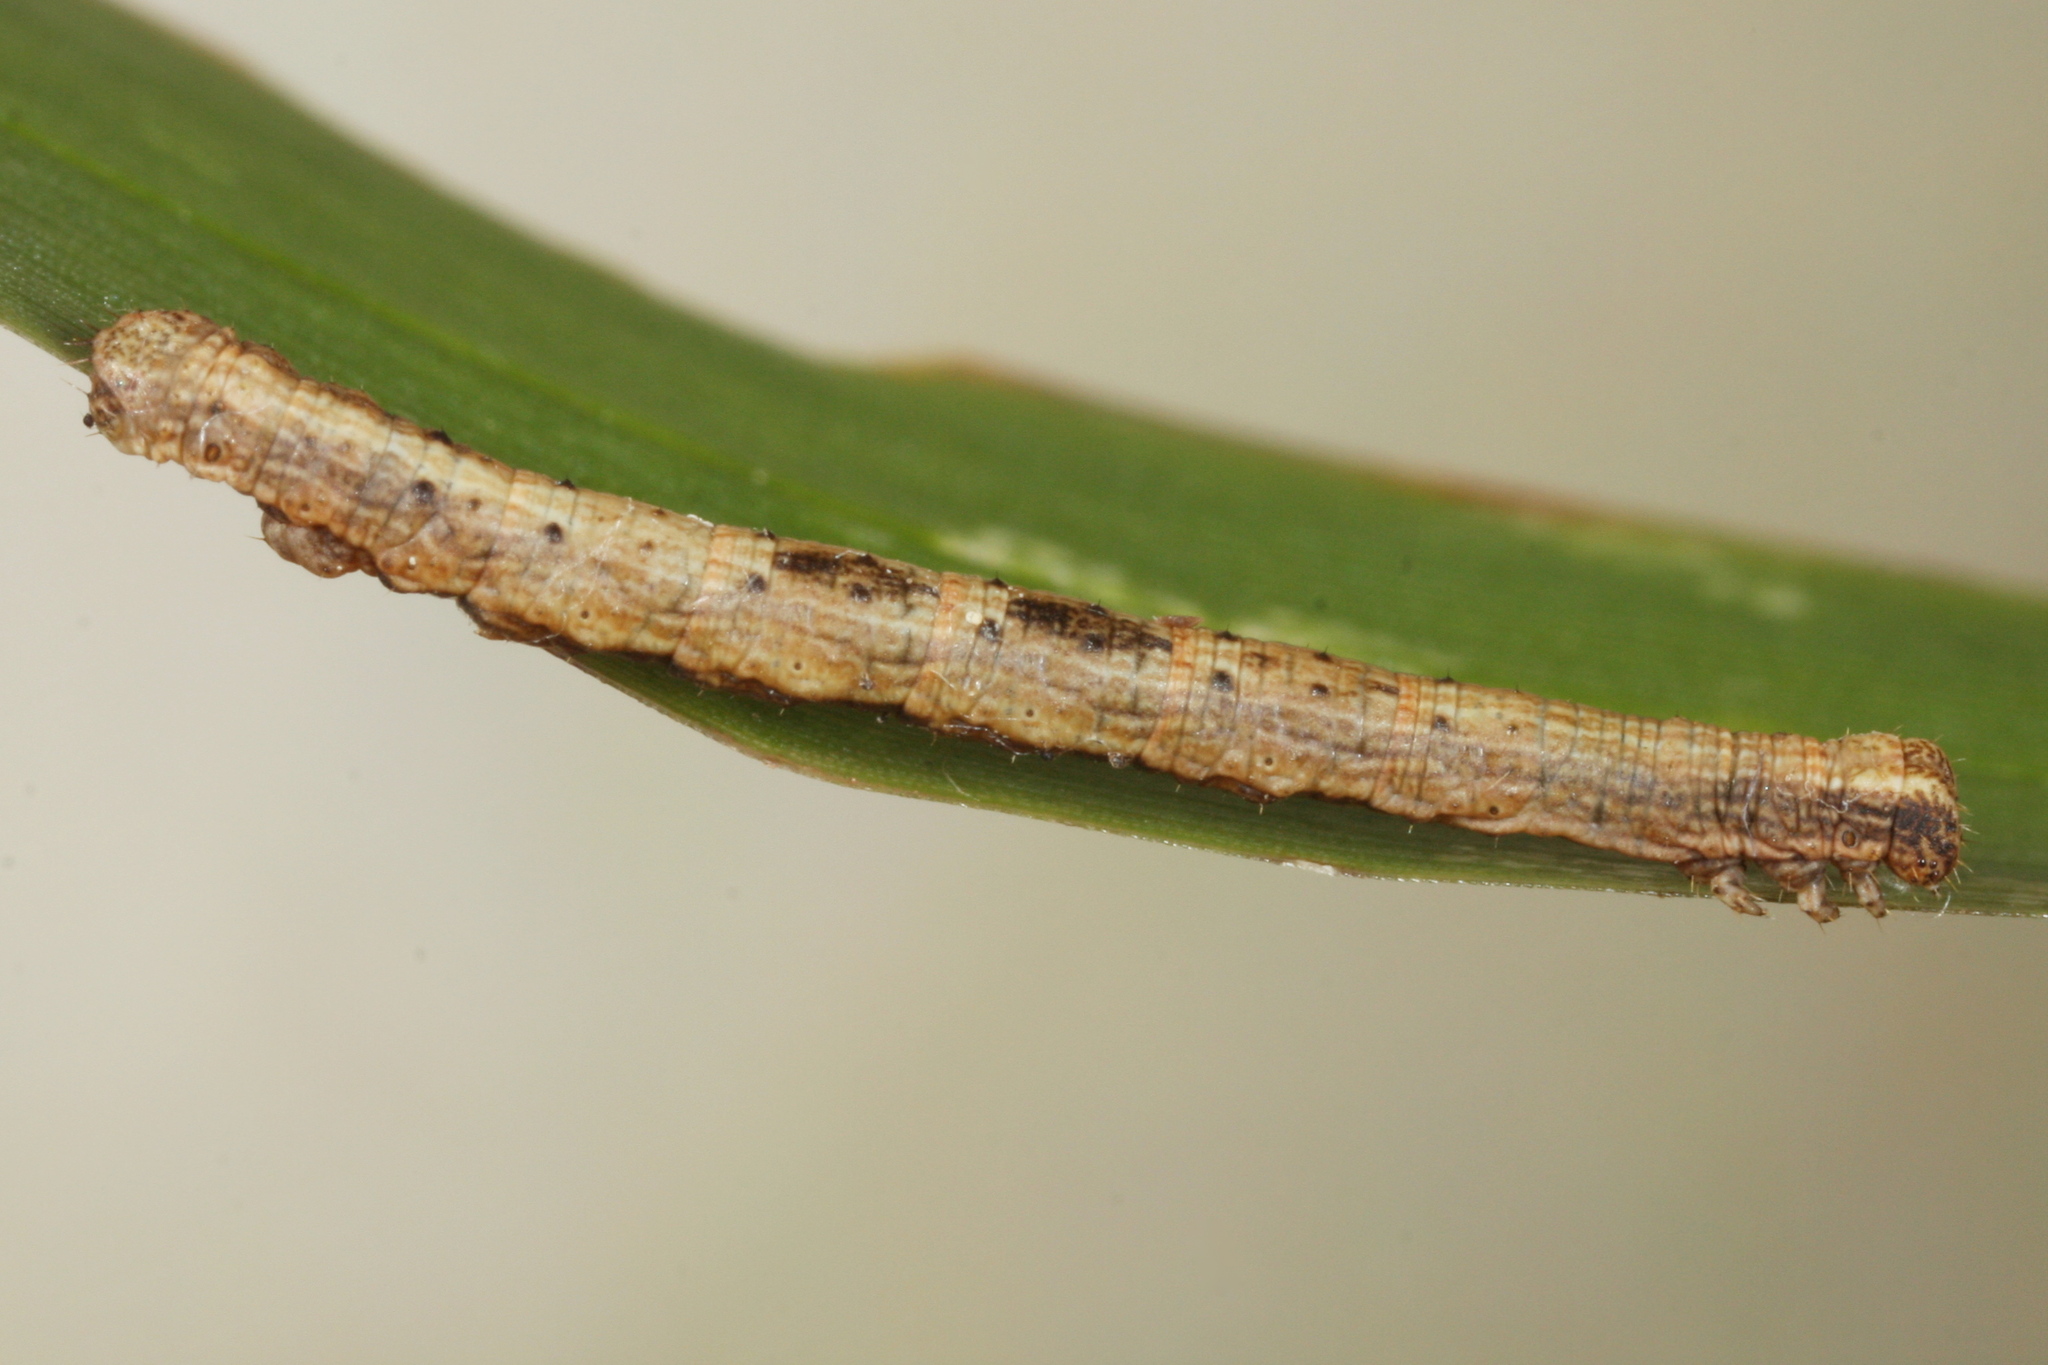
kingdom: Animalia
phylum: Arthropoda
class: Insecta
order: Lepidoptera
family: Geometridae
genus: Alcis
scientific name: Alcis repandata
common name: Mottled beauty
